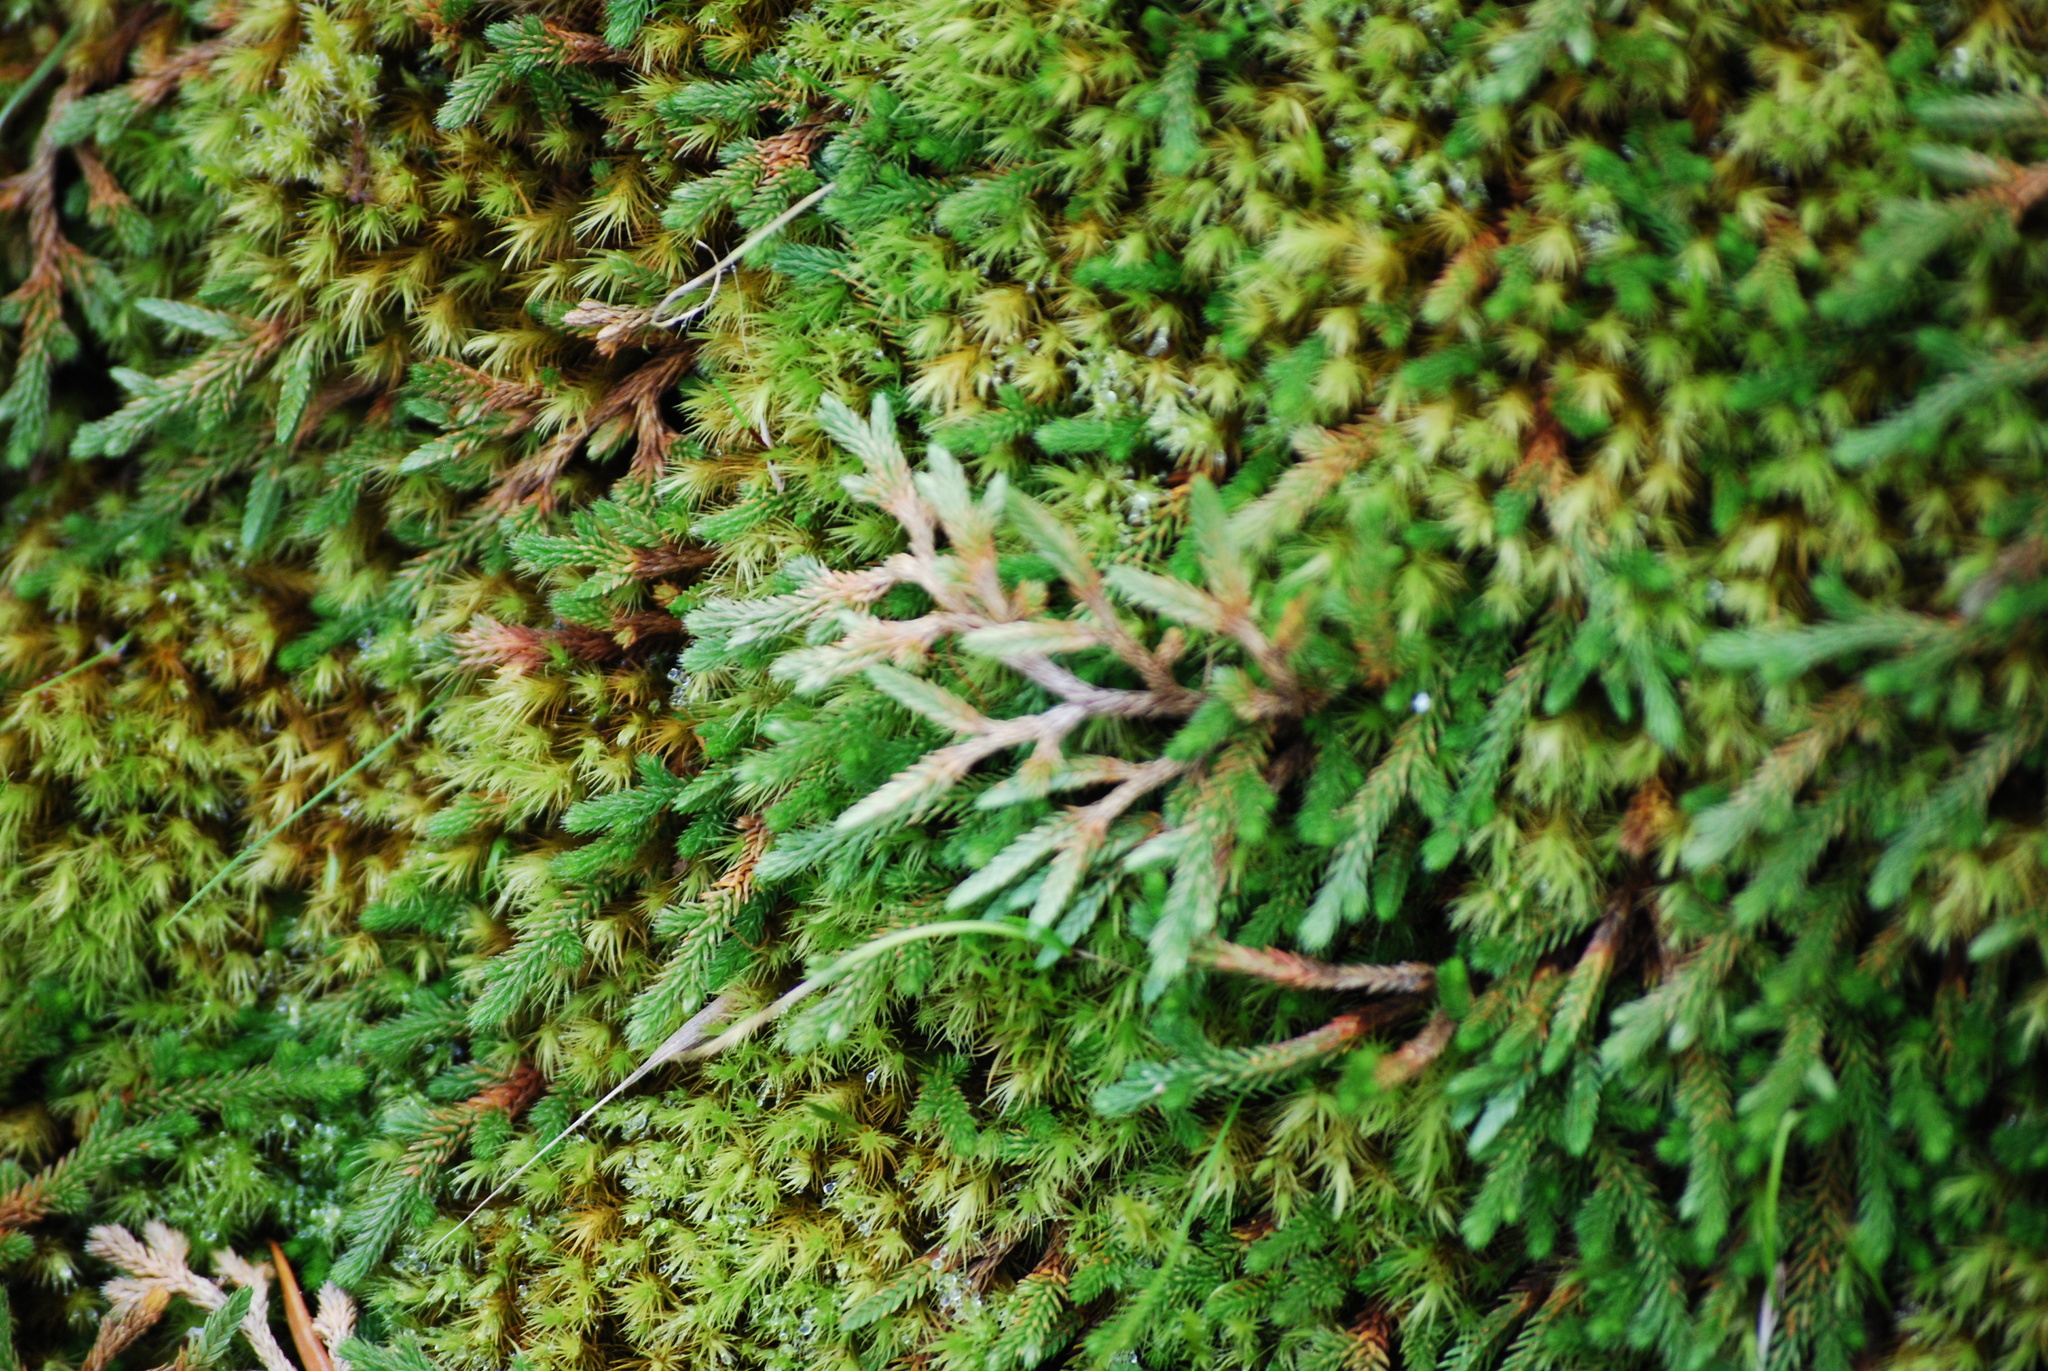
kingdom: Plantae
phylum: Tracheophyta
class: Lycopodiopsida
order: Selaginellales
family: Selaginellaceae
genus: Selaginella
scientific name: Selaginella wallacei
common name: Wallace's selaginella
